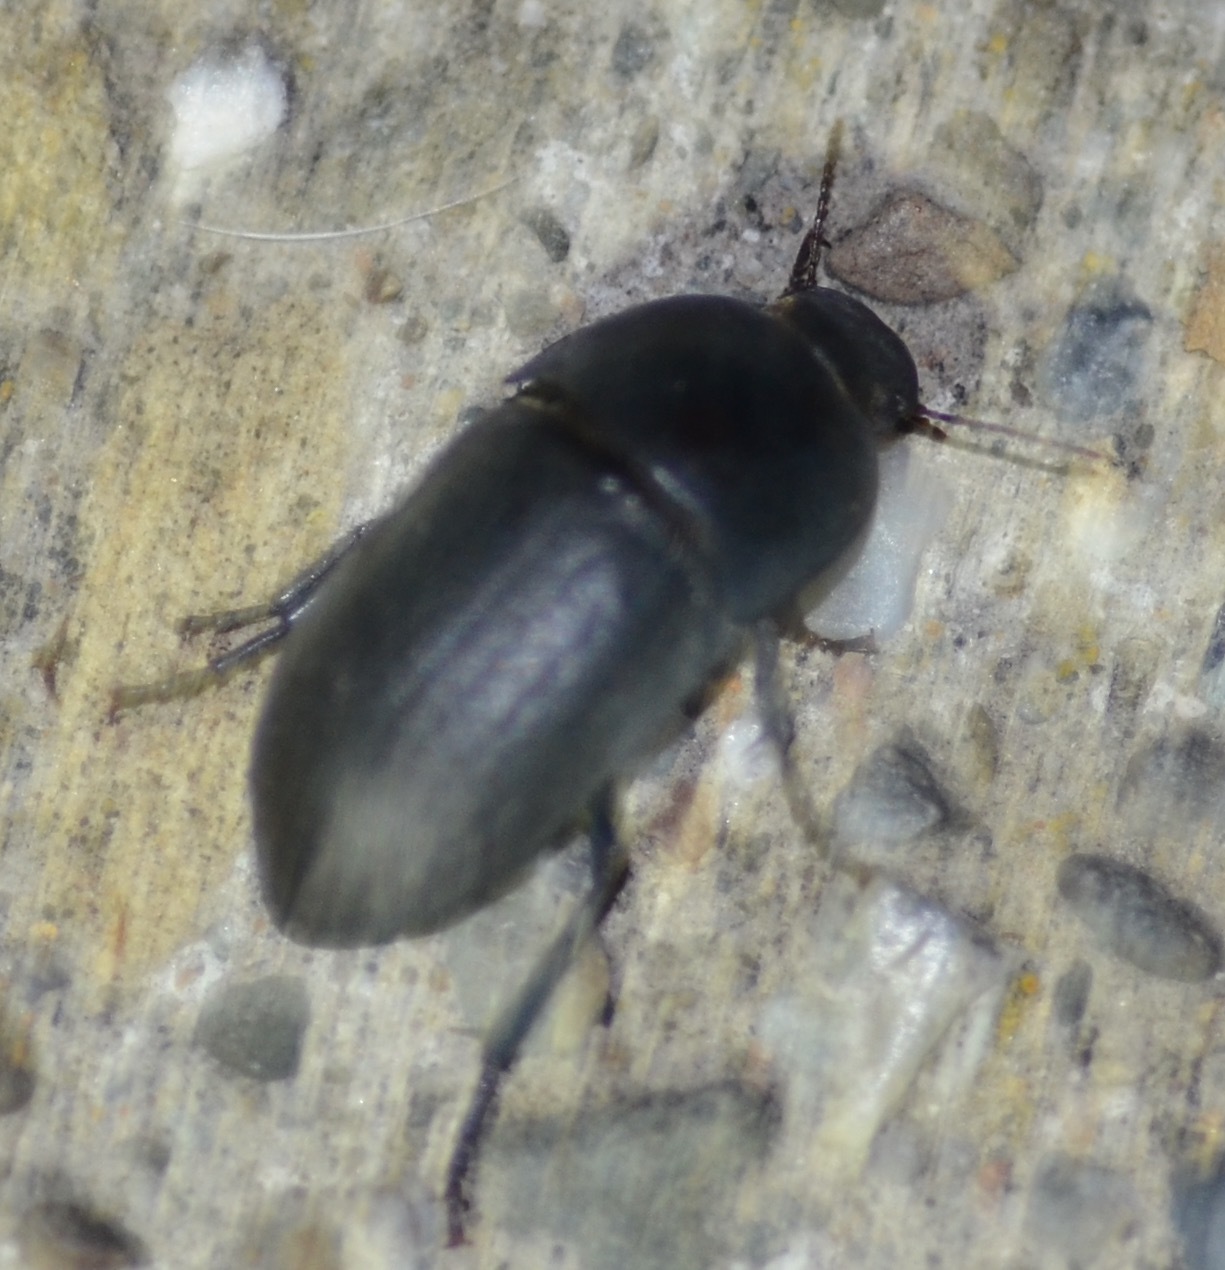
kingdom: Animalia
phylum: Arthropoda
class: Insecta
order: Coleoptera
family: Tenebrionidae
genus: Coniontis
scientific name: Coniontis
